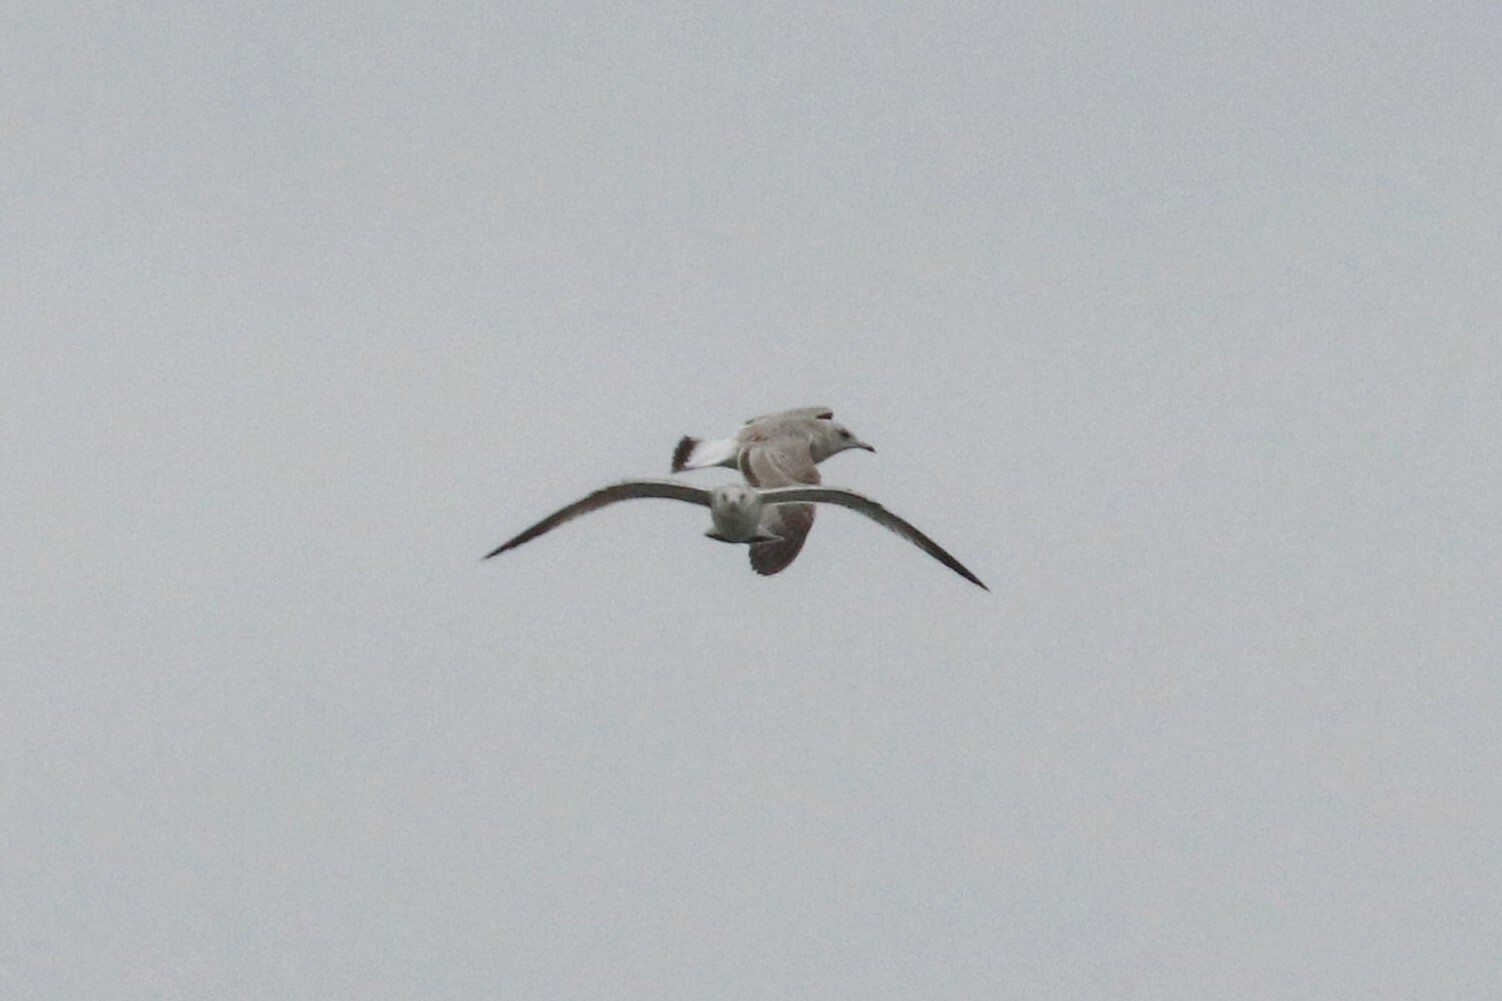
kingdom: Animalia
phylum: Chordata
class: Aves
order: Charadriiformes
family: Laridae
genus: Larus
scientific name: Larus canus
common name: Mew gull
